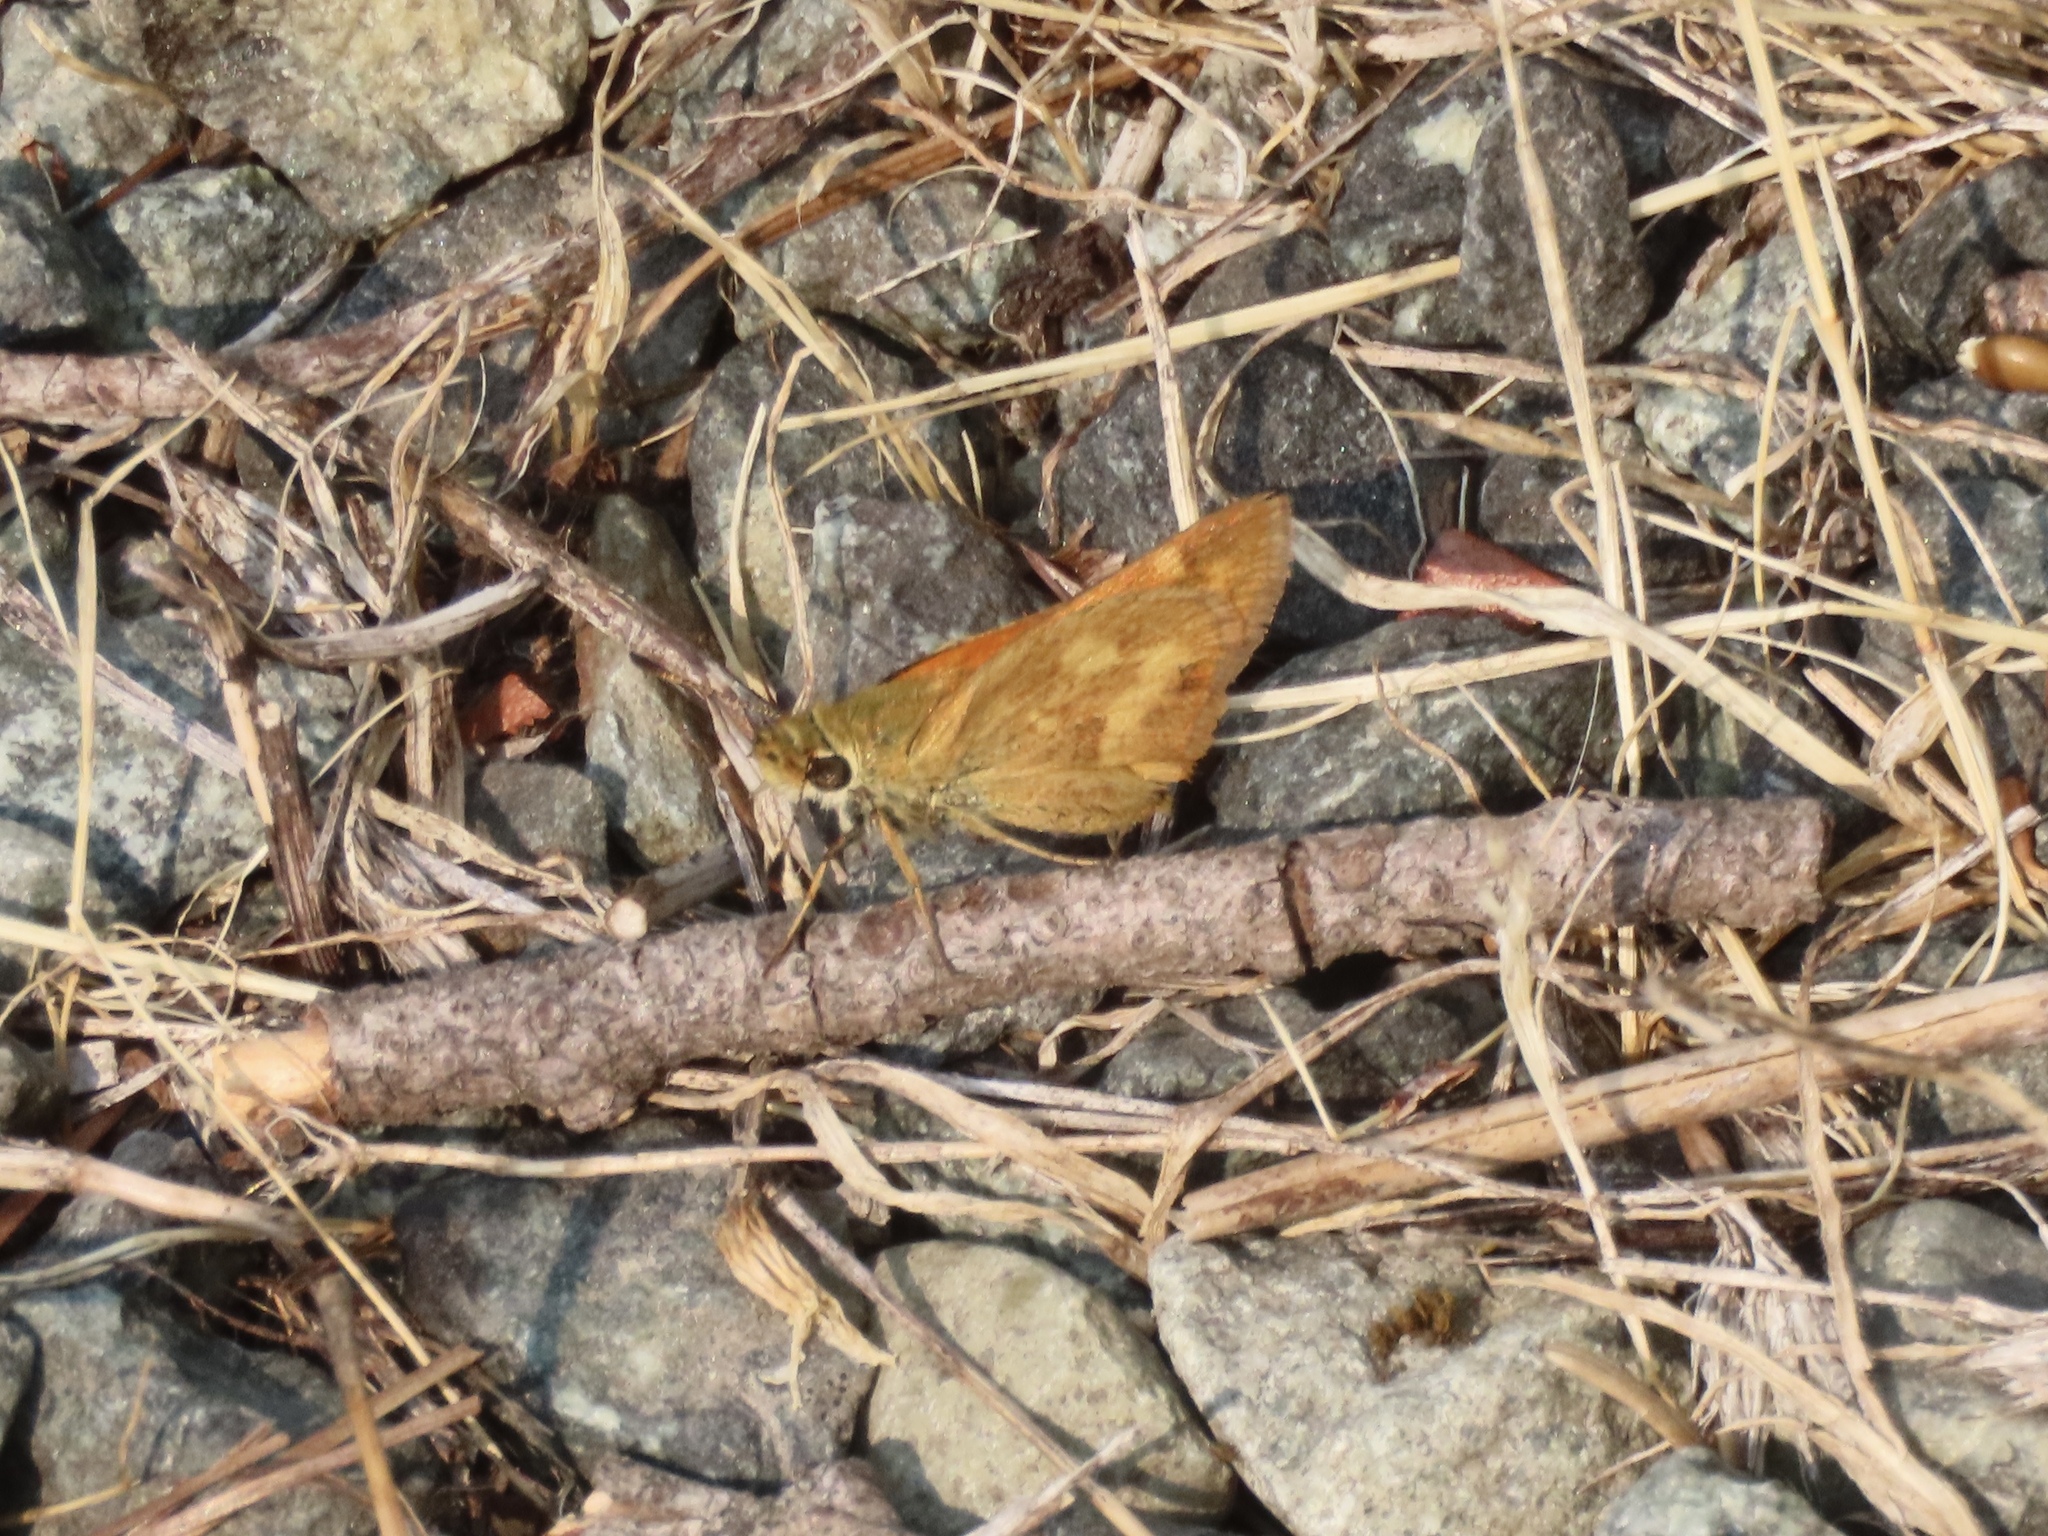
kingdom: Animalia
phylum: Arthropoda
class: Insecta
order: Lepidoptera
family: Hesperiidae
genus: Ochlodes
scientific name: Ochlodes sylvanoides
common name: Woodland skipper
